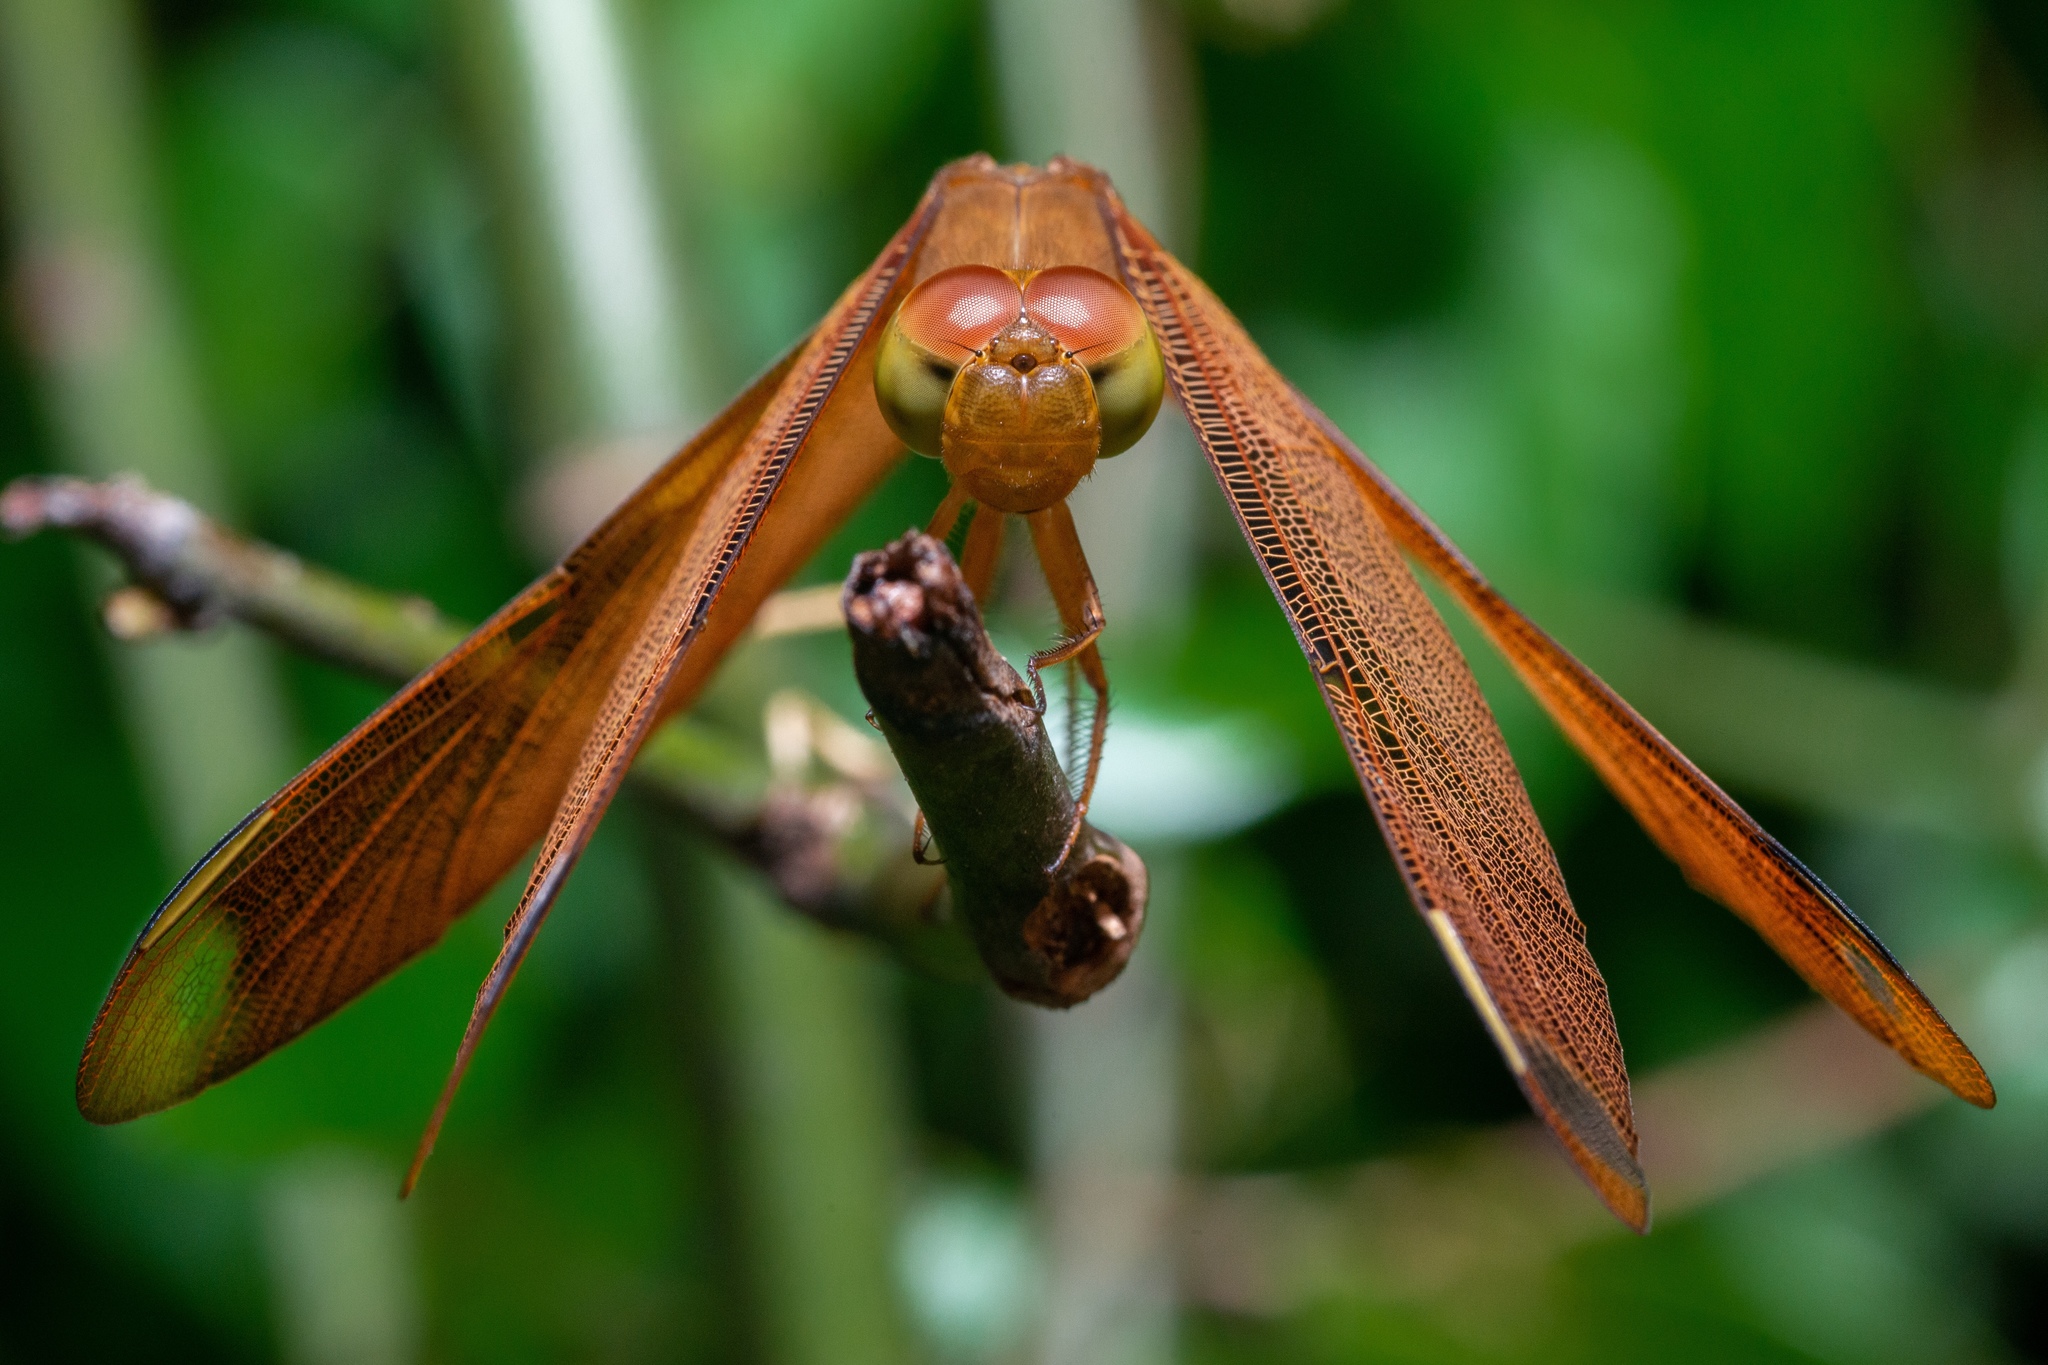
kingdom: Animalia
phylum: Arthropoda
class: Insecta
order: Odonata
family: Libellulidae
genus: Neurothemis
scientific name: Neurothemis fulvia
